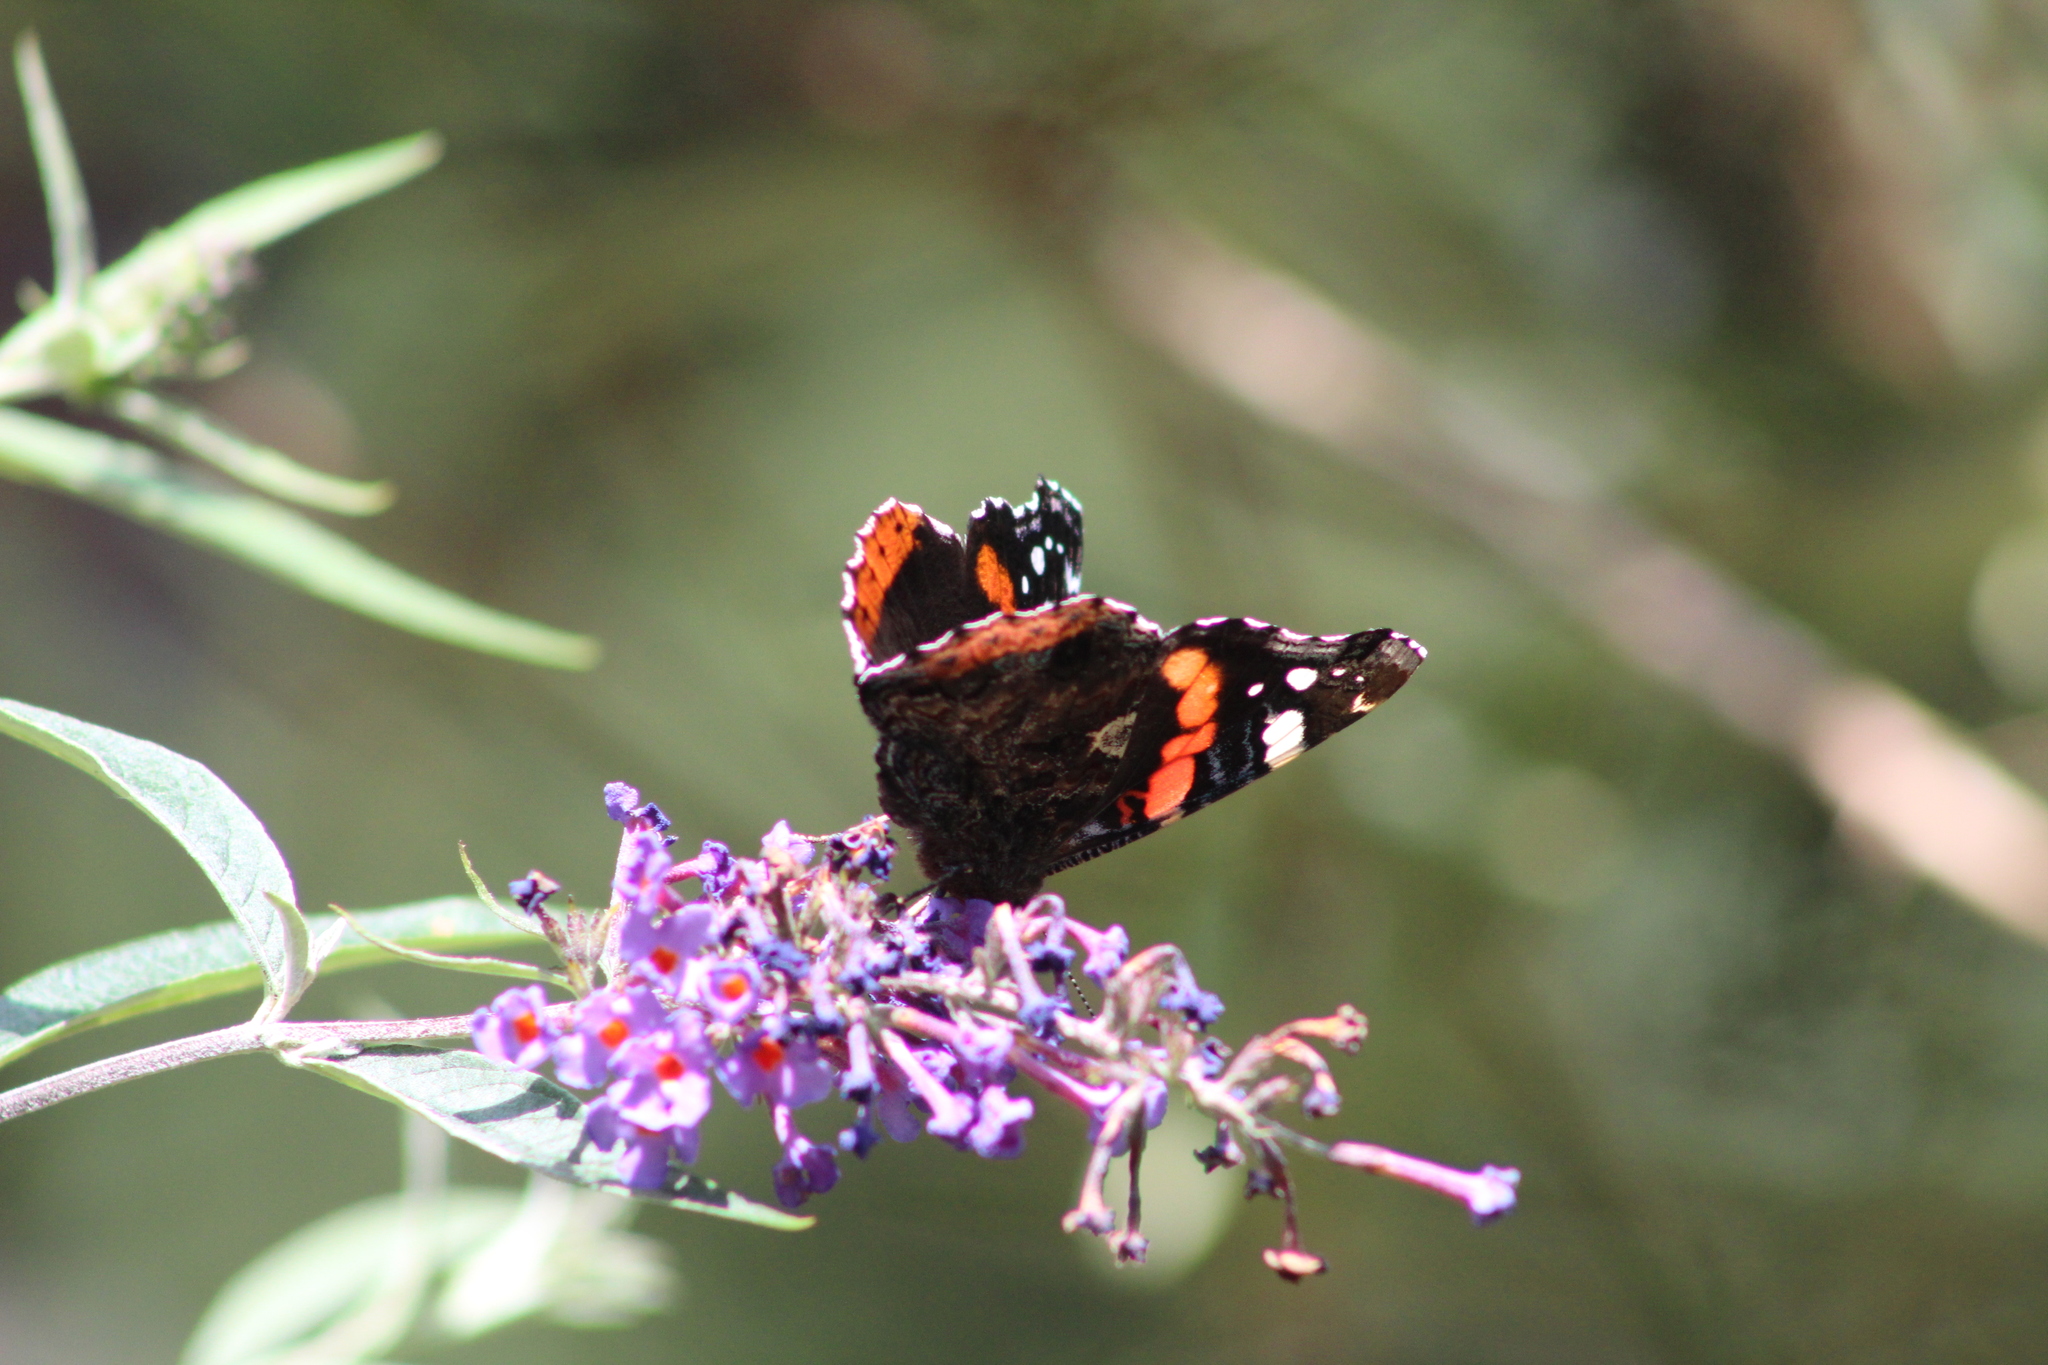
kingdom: Animalia
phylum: Arthropoda
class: Insecta
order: Lepidoptera
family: Nymphalidae
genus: Vanessa
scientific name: Vanessa atalanta
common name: Red admiral
